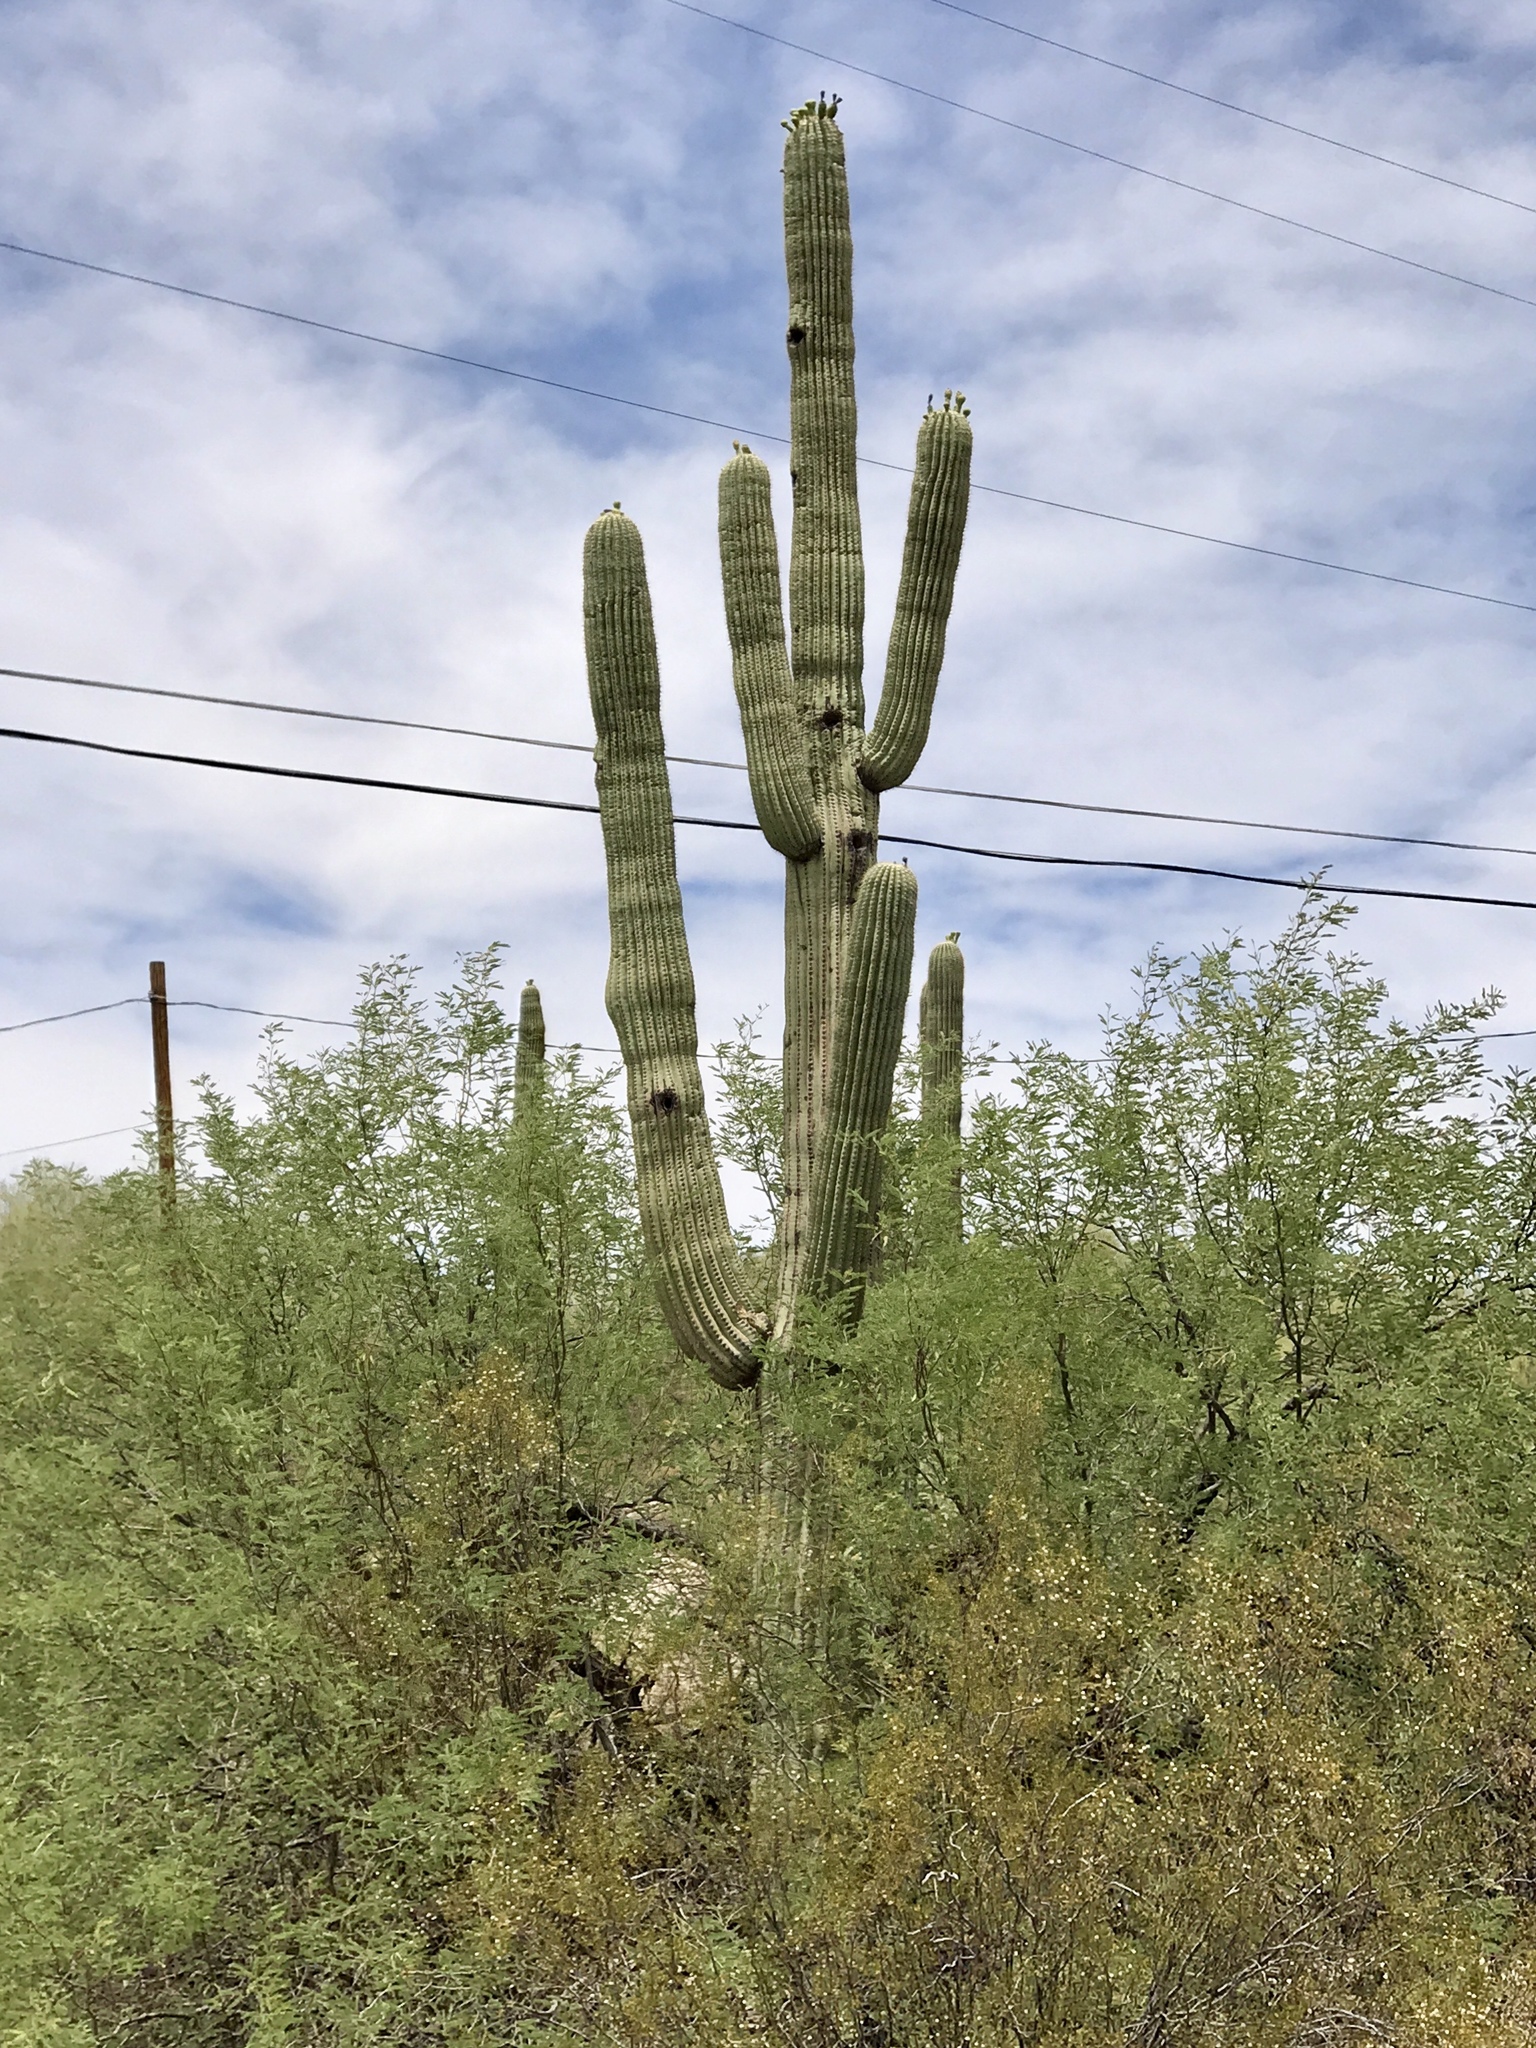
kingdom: Plantae
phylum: Tracheophyta
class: Magnoliopsida
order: Caryophyllales
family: Cactaceae
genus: Carnegiea
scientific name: Carnegiea gigantea
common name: Saguaro
